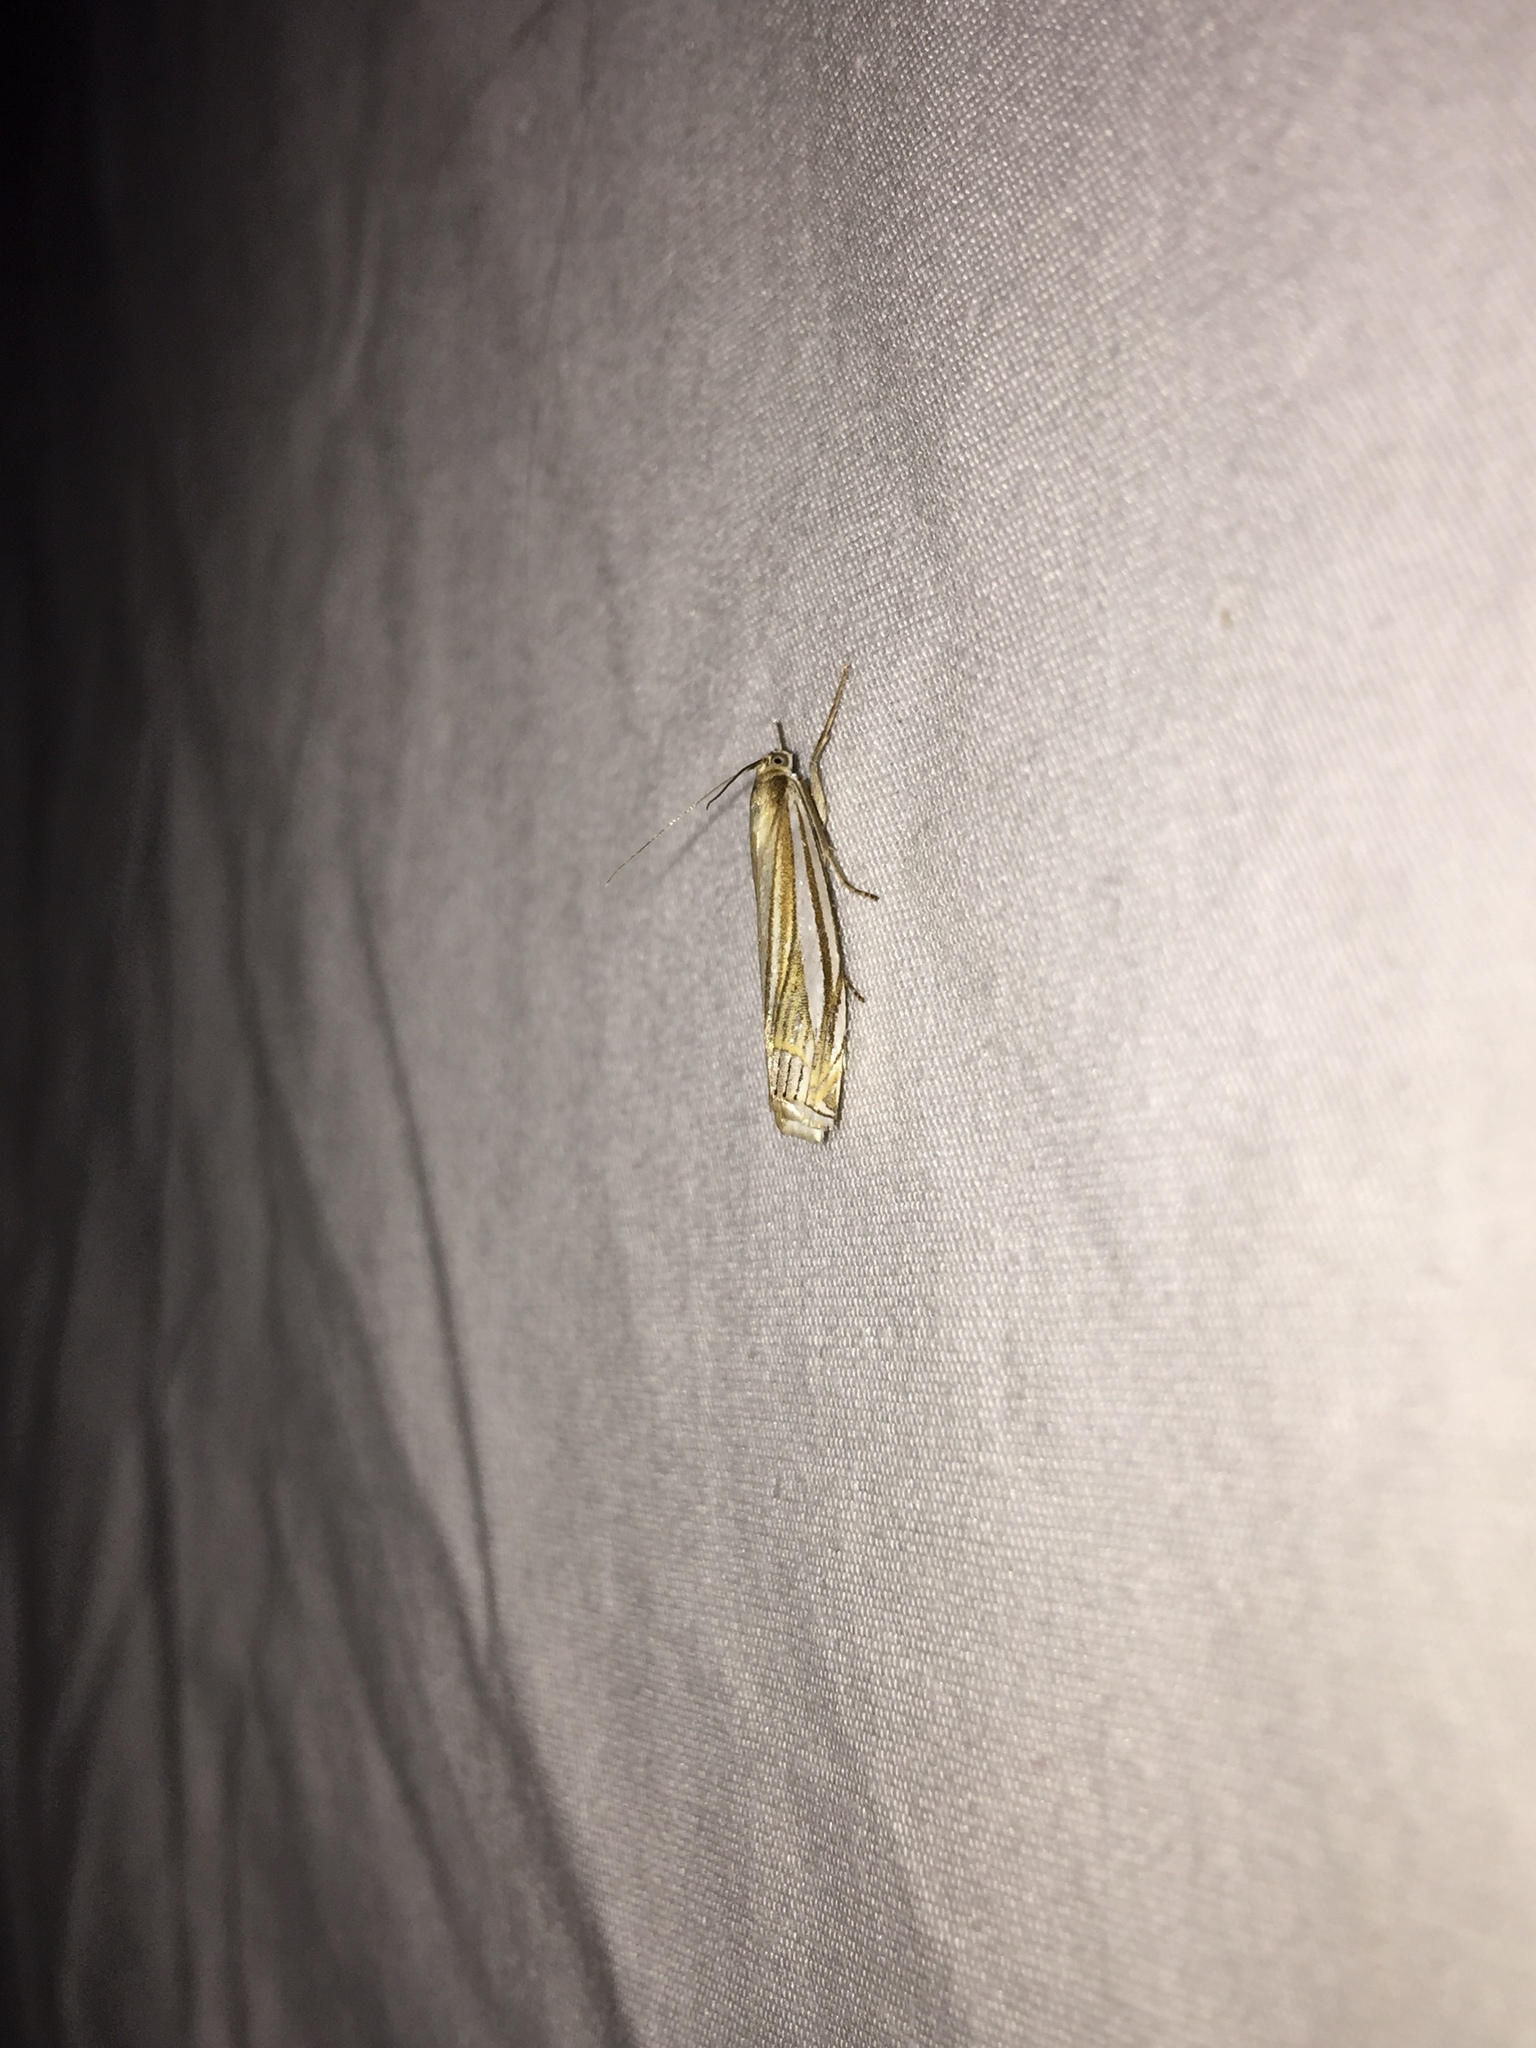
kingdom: Animalia
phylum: Arthropoda
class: Insecta
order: Lepidoptera
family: Crambidae
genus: Crambus
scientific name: Crambus laqueatellus
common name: Eastern grass-veneer
